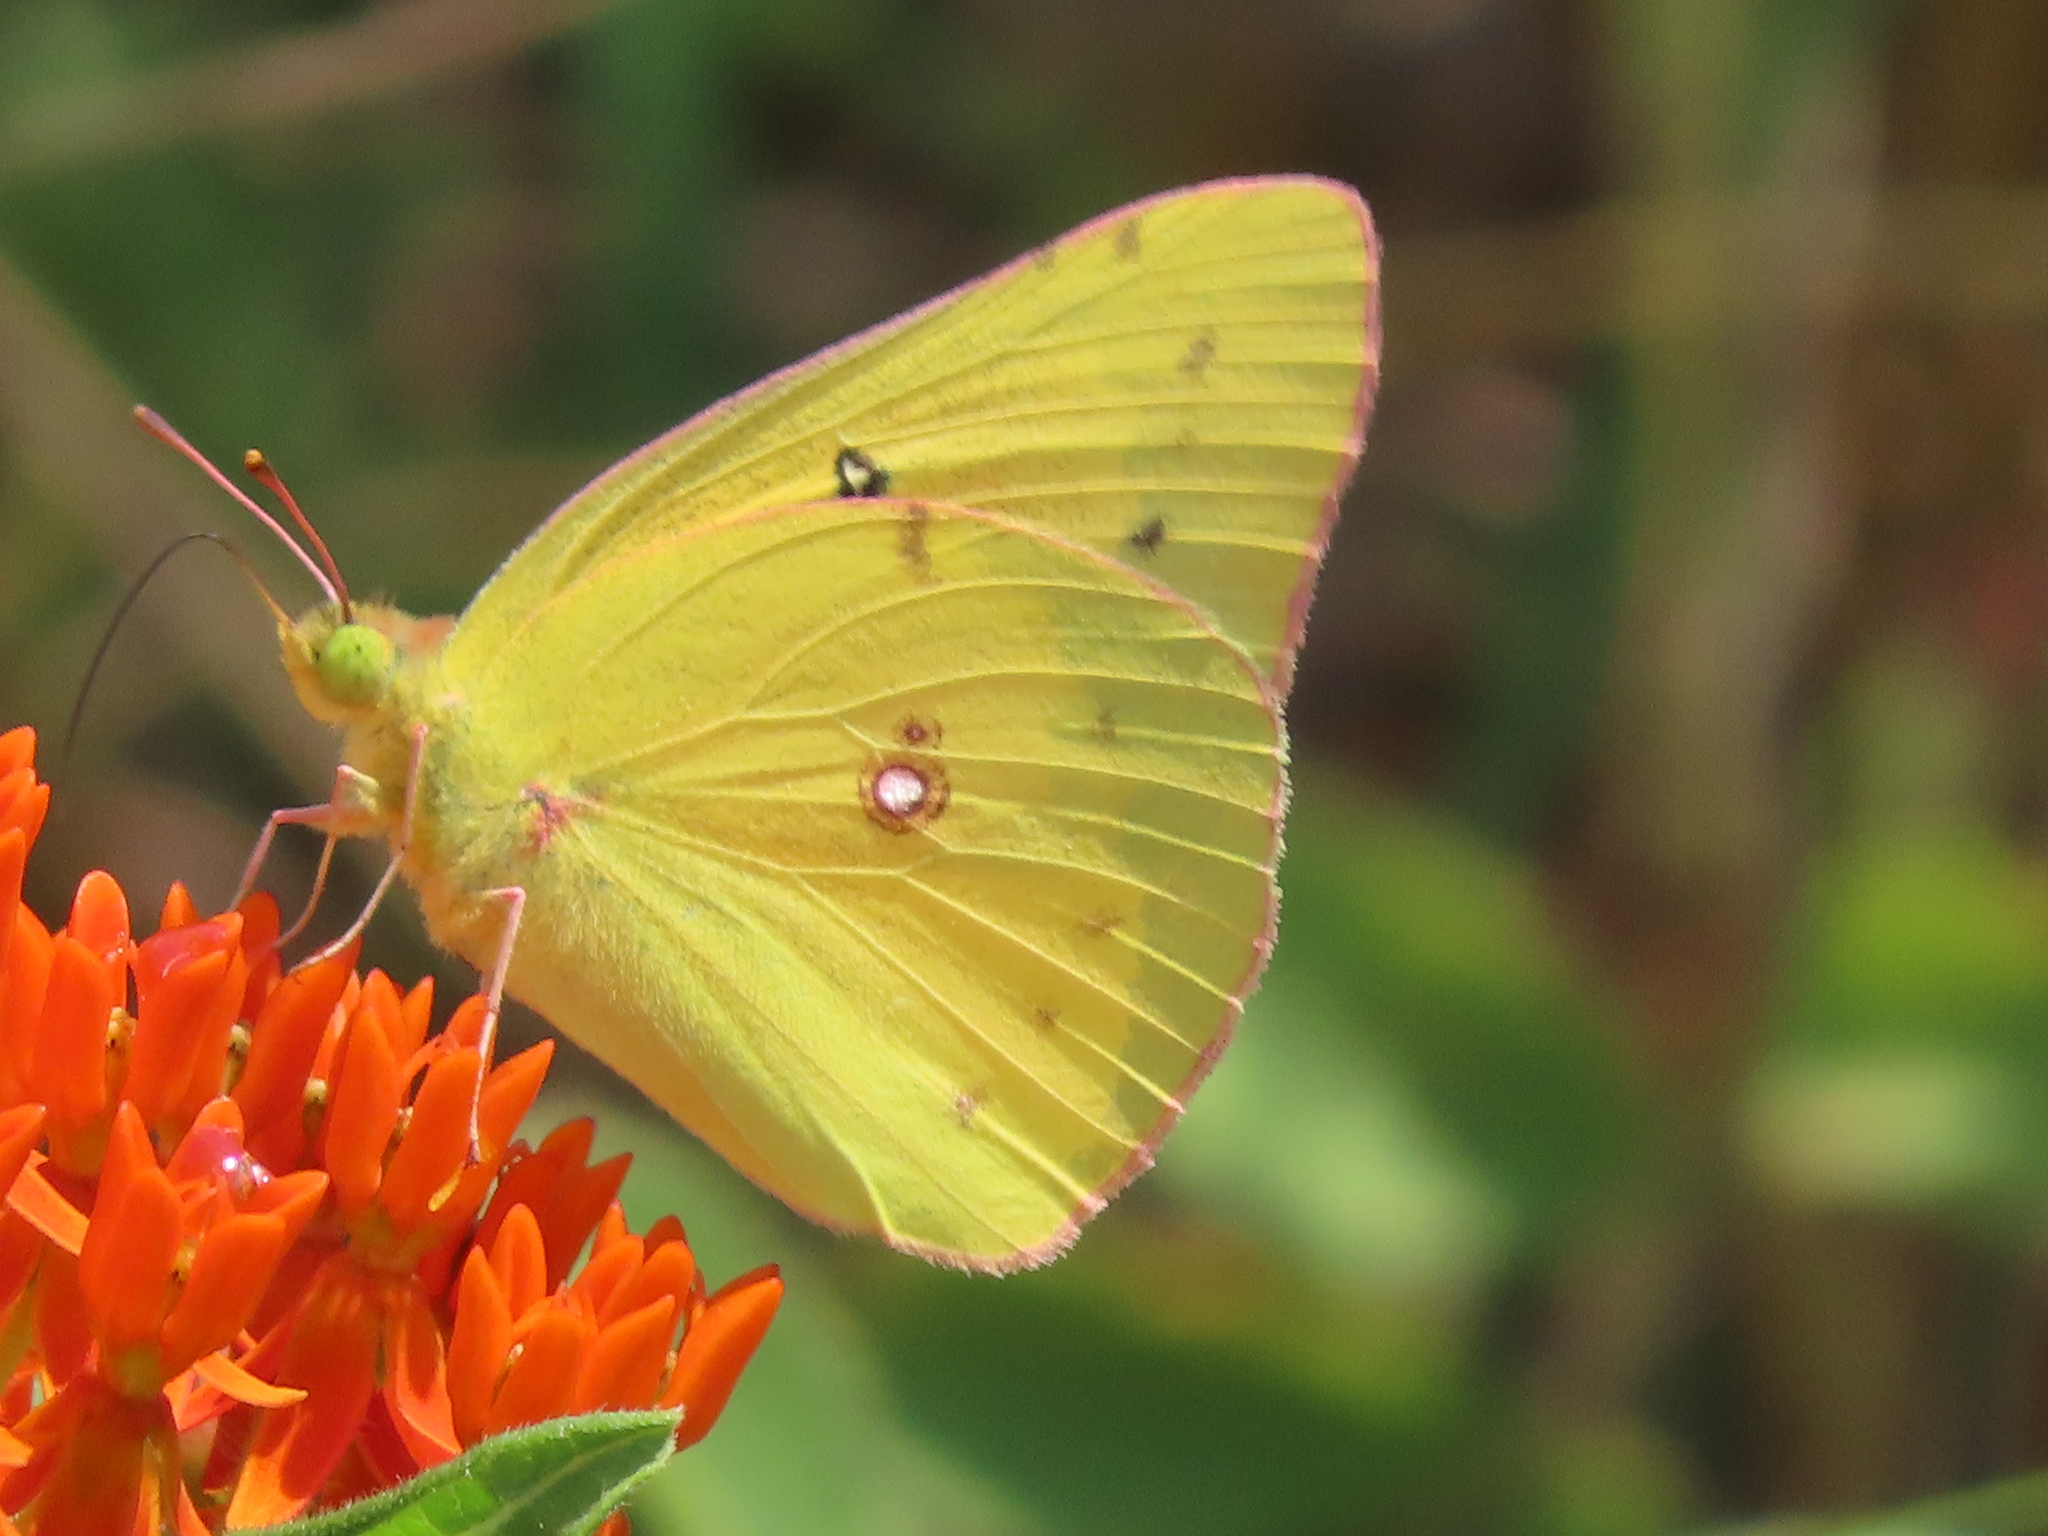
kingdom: Animalia
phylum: Arthropoda
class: Insecta
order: Lepidoptera
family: Pieridae
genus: Colias
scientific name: Colias eurytheme
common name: Alfalfa butterfly
